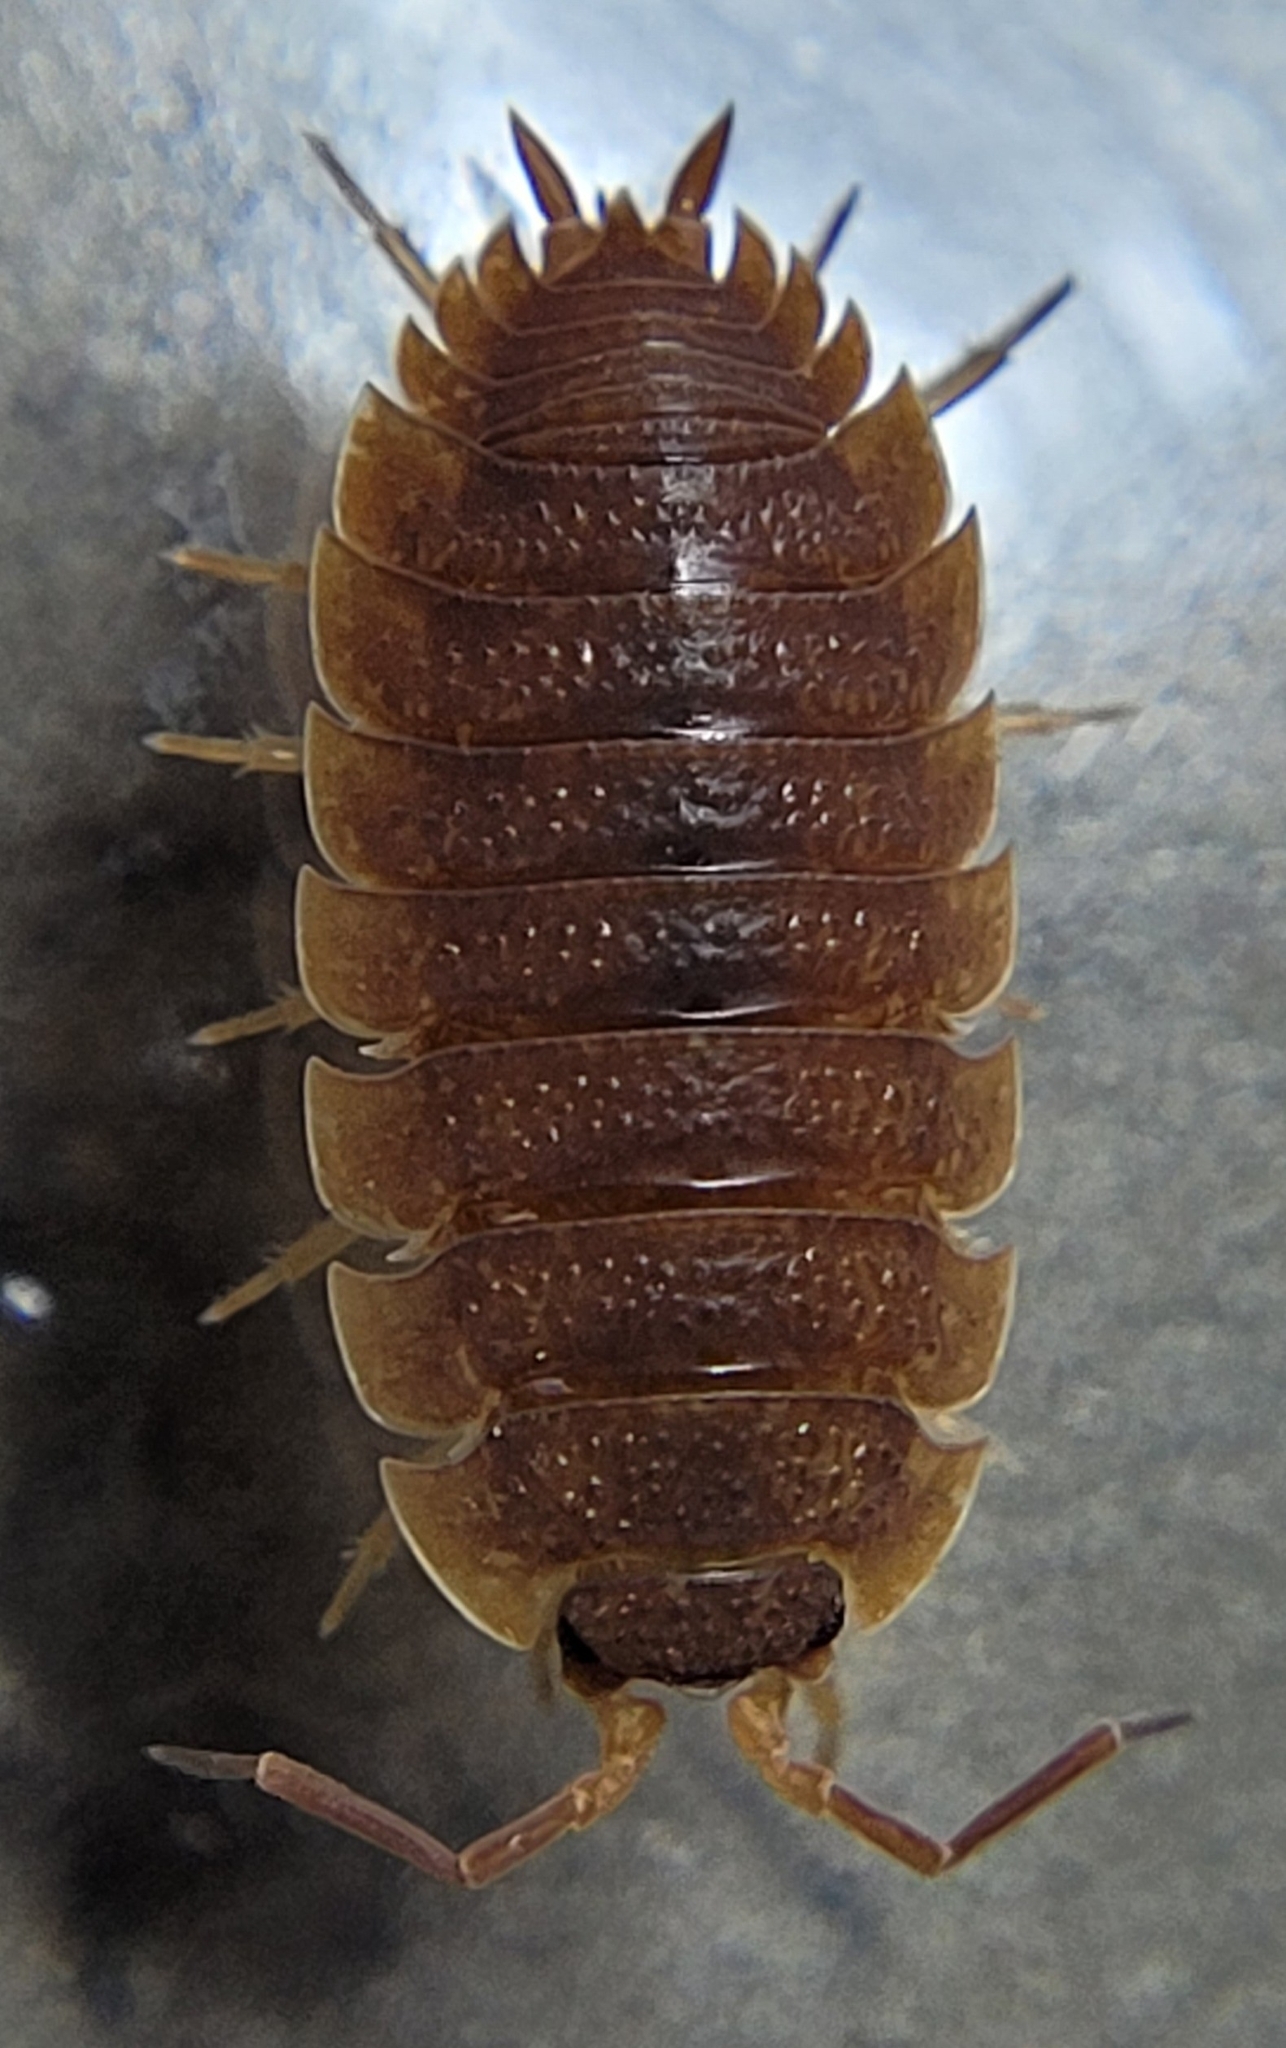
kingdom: Animalia
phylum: Arthropoda
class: Malacostraca
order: Isopoda
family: Porcellionidae
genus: Porcellio
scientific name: Porcellio scaber
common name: Common rough woodlouse
